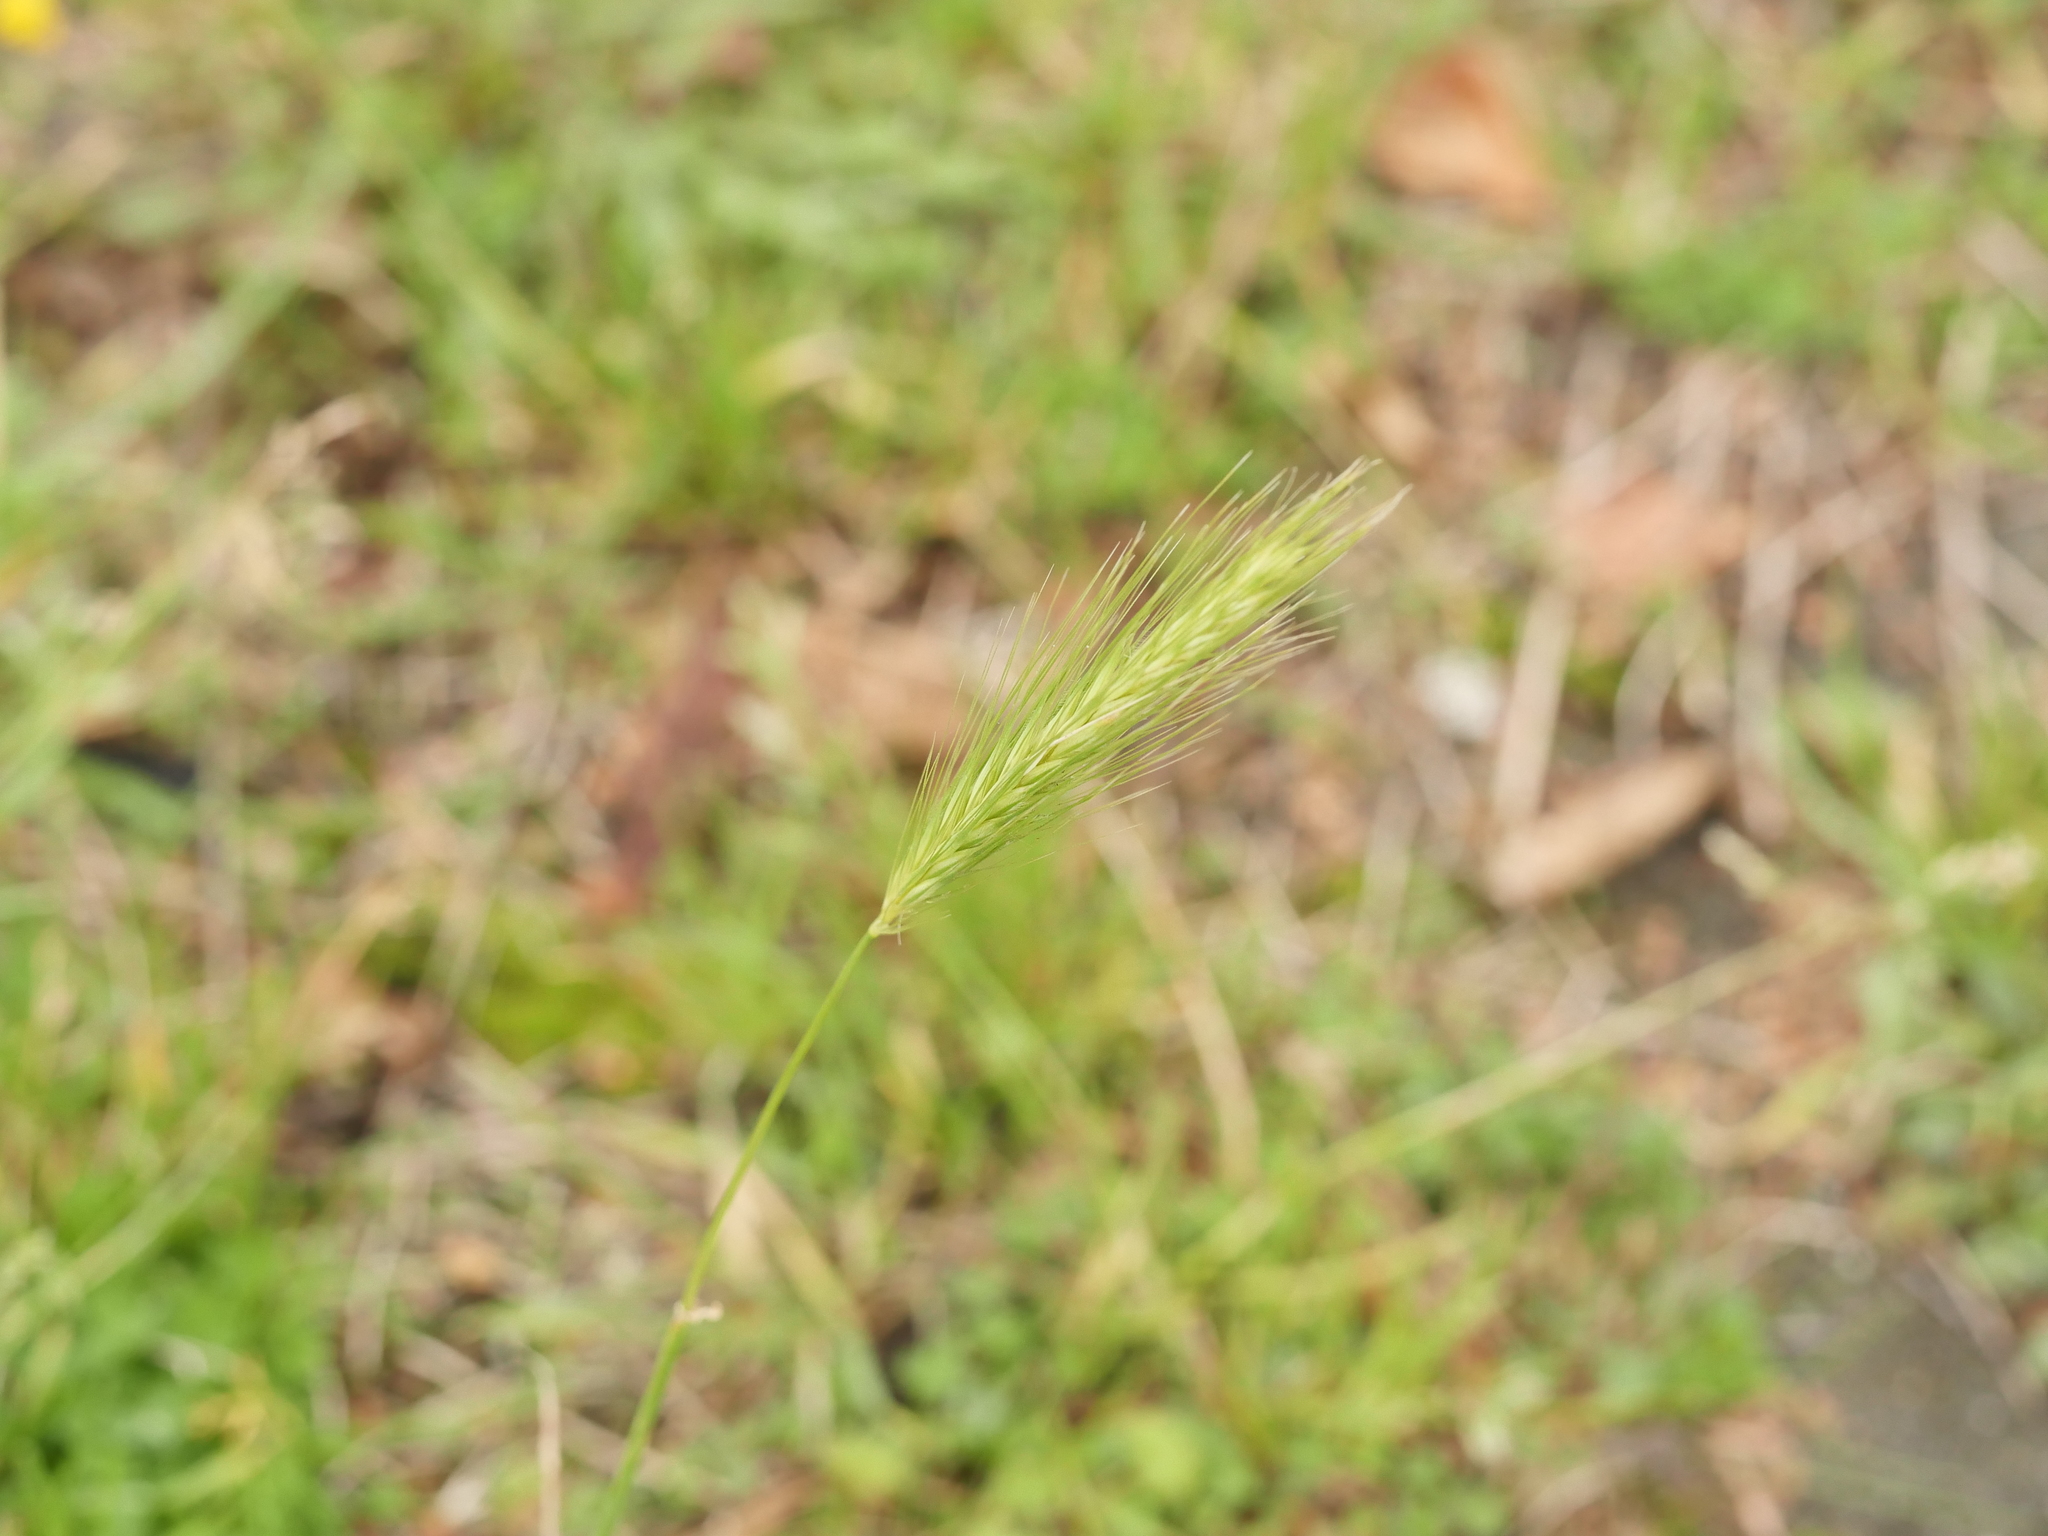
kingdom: Plantae
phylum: Tracheophyta
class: Liliopsida
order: Poales
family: Poaceae
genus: Hordeum
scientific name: Hordeum murinum
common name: Wall barley
